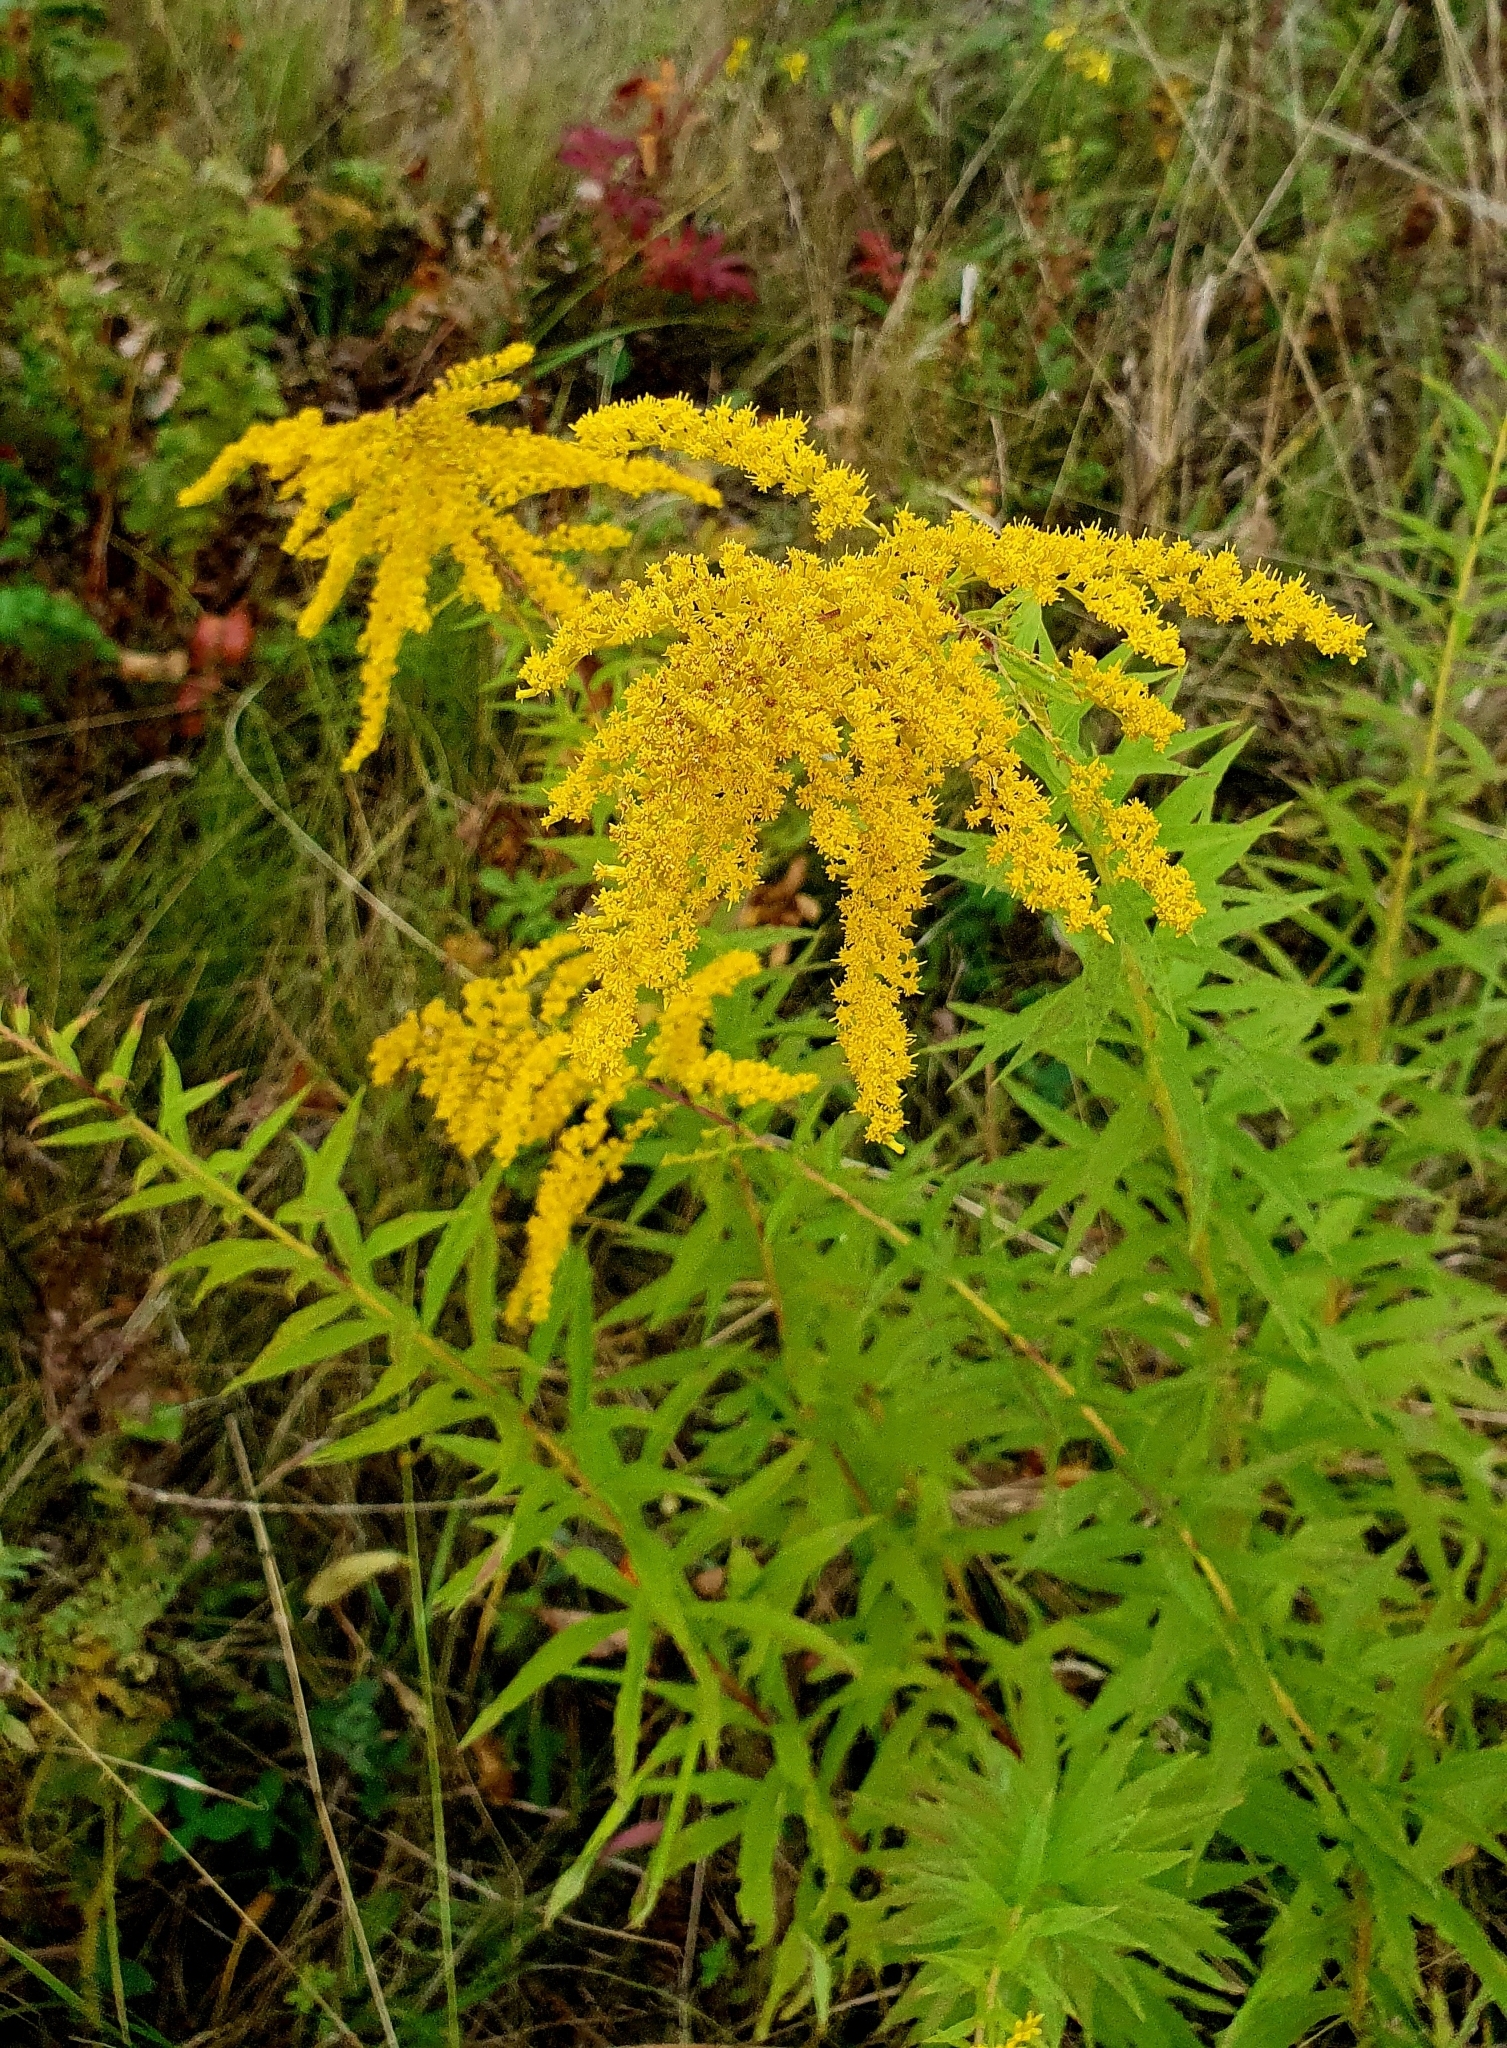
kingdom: Plantae
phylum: Tracheophyta
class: Magnoliopsida
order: Asterales
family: Asteraceae
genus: Solidago
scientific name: Solidago canadensis
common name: Canada goldenrod
